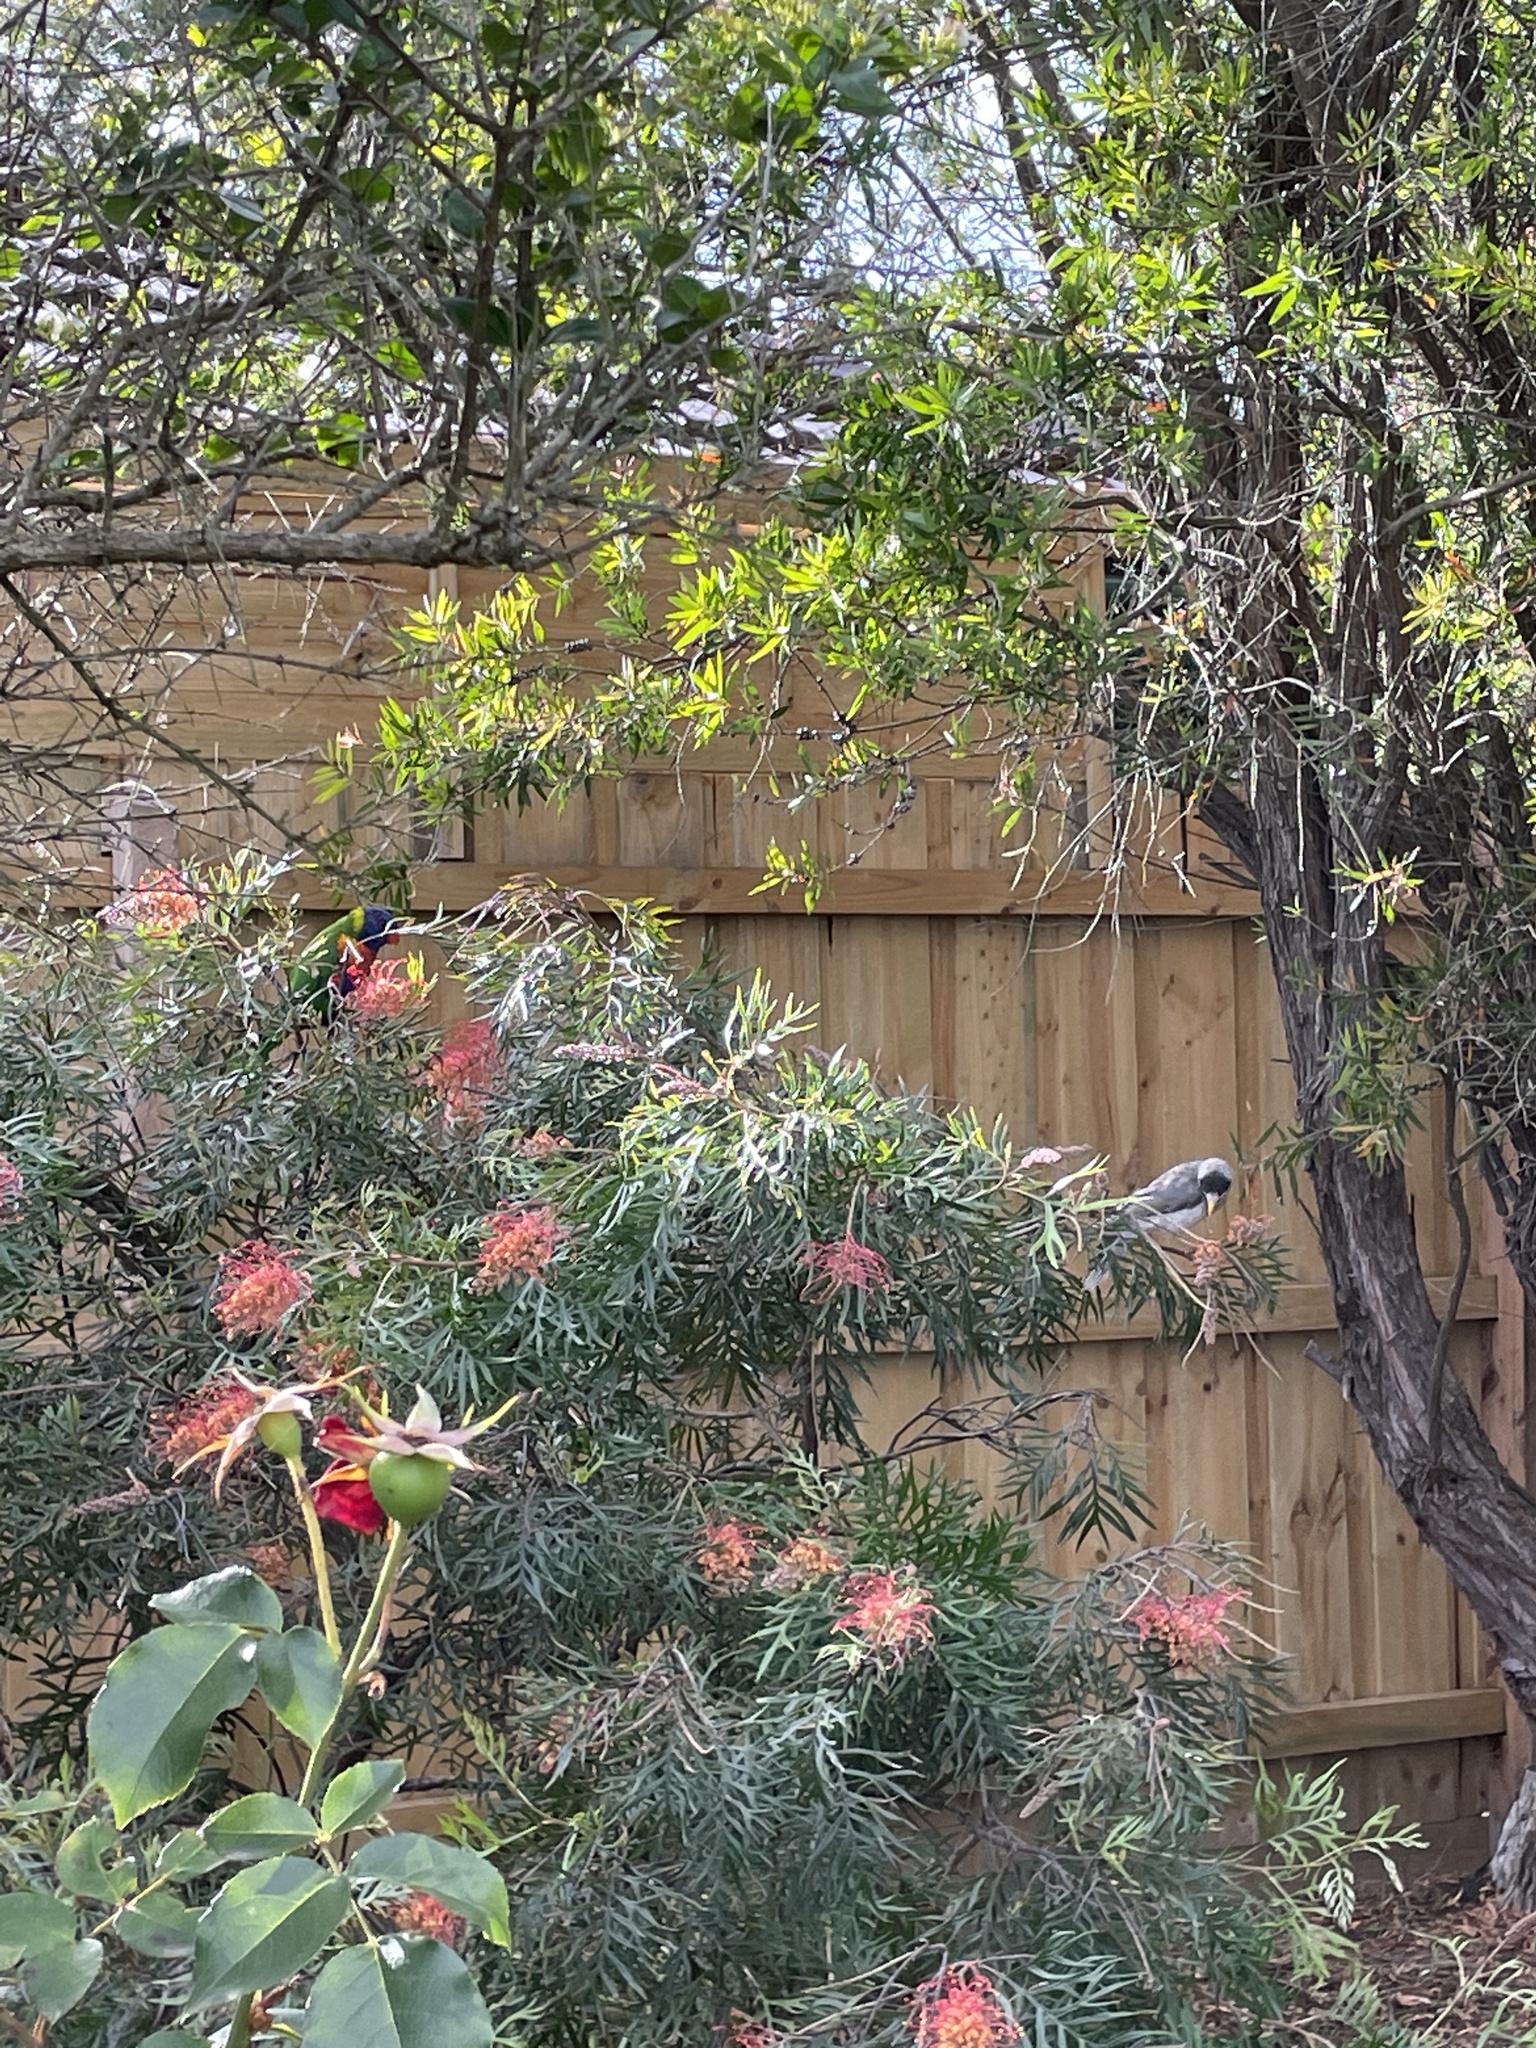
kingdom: Animalia
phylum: Chordata
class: Aves
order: Psittaciformes
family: Psittacidae
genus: Trichoglossus
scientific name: Trichoglossus haematodus
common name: Coconut lorikeet
